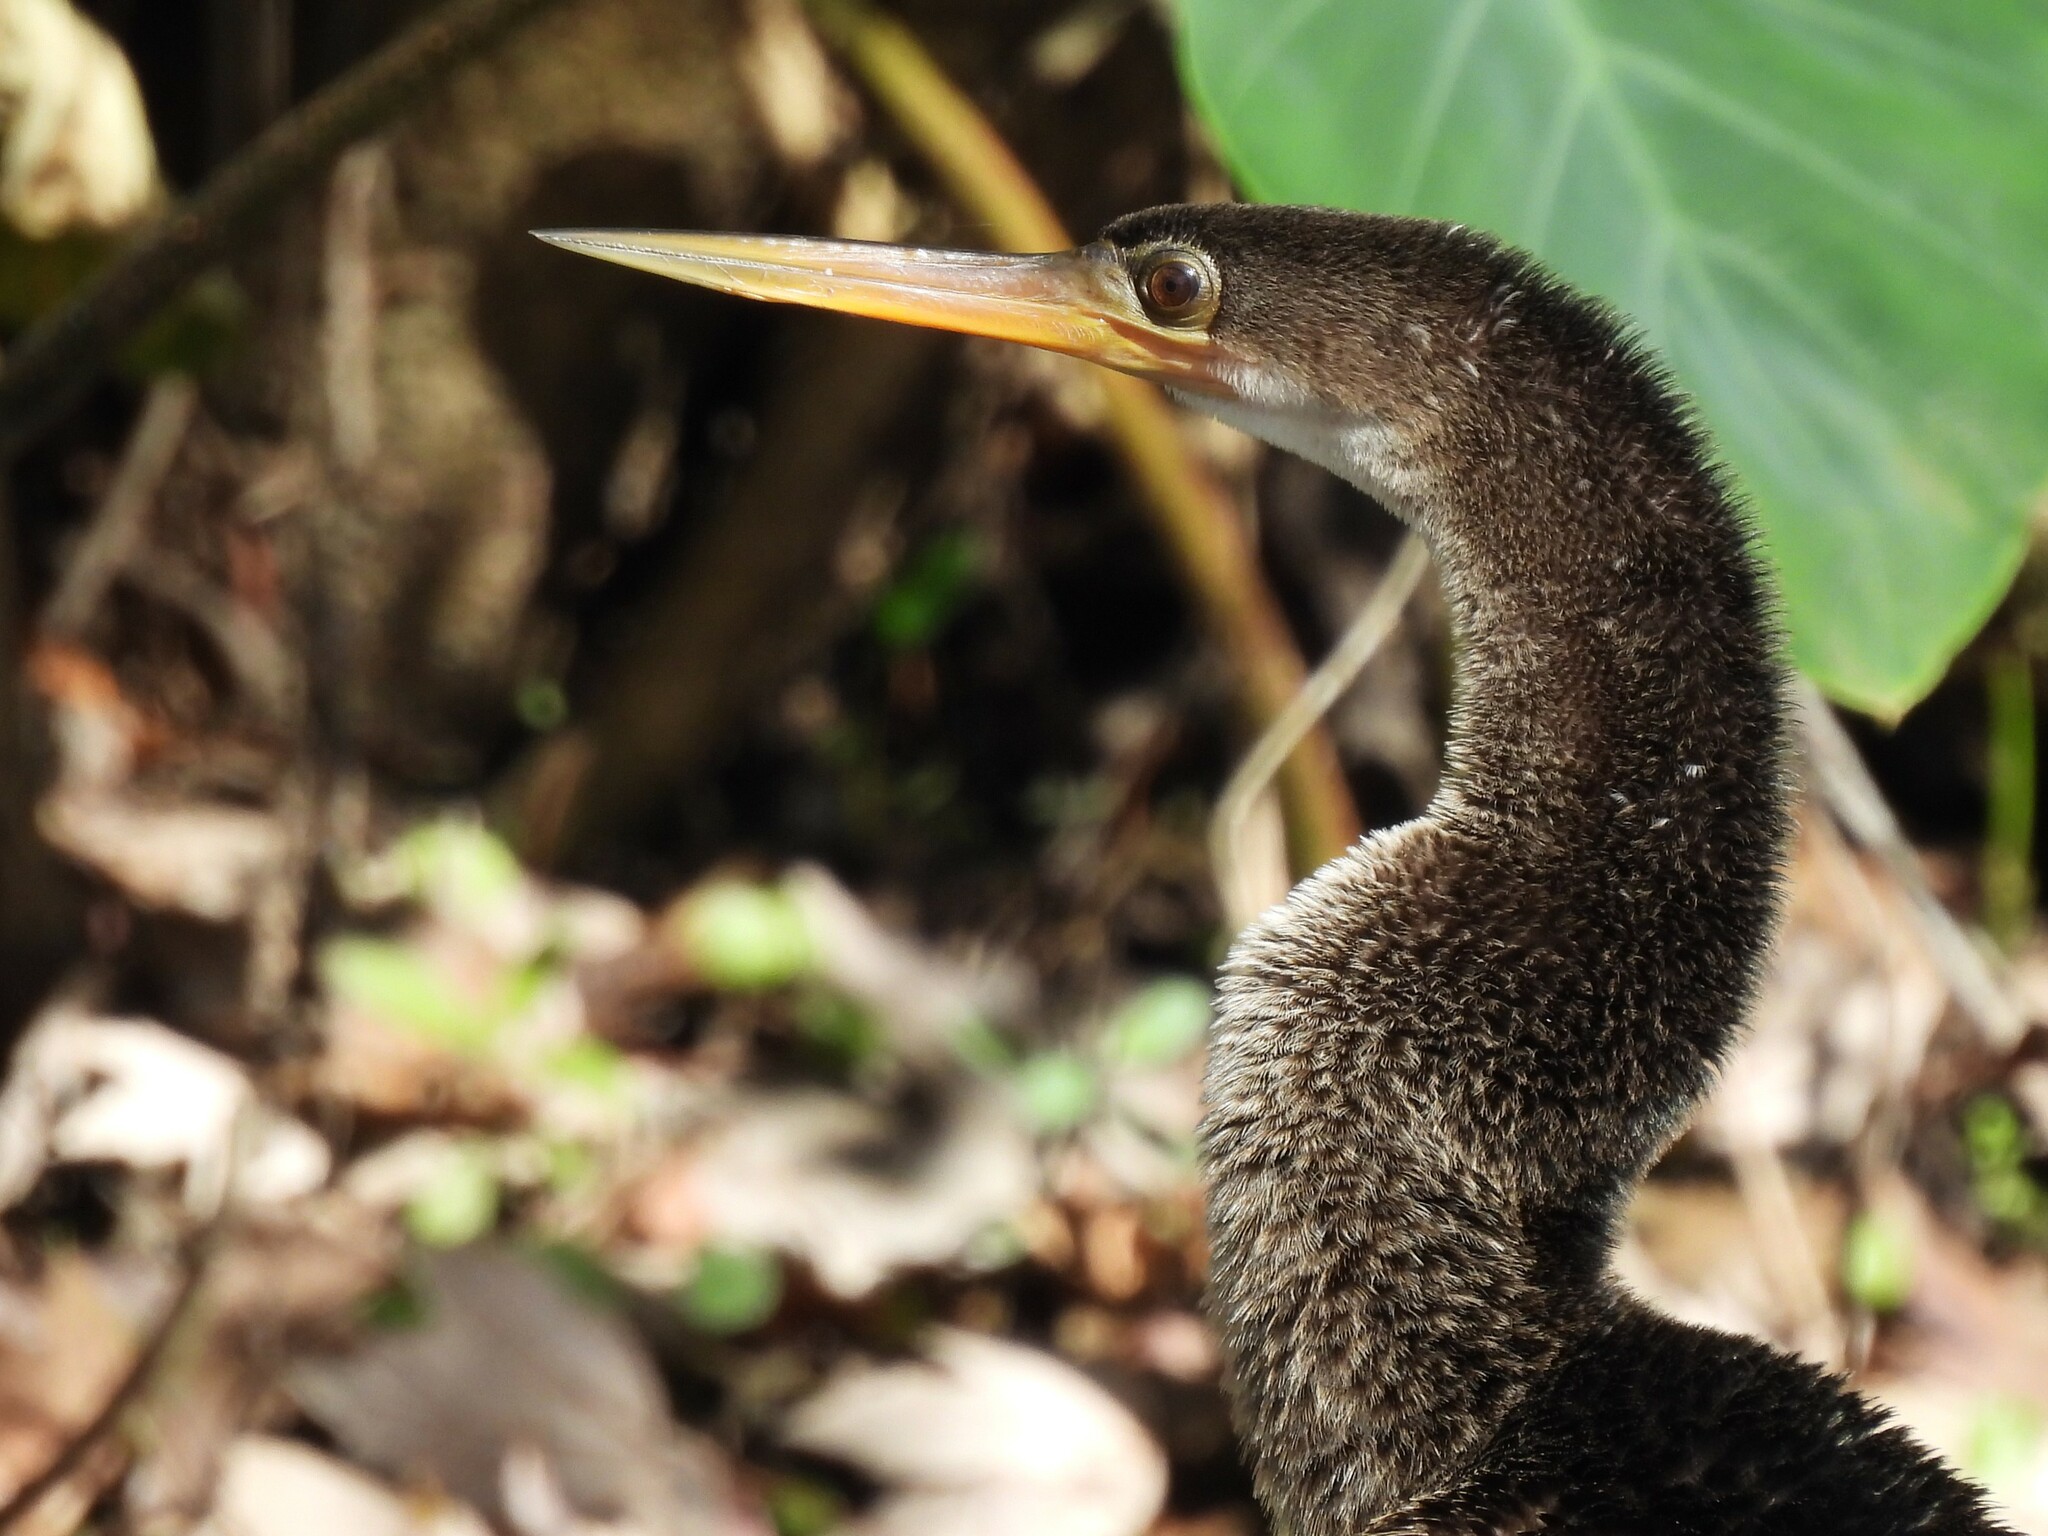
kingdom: Animalia
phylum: Chordata
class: Aves
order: Suliformes
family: Anhingidae
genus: Anhinga
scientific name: Anhinga anhinga
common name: Anhinga
